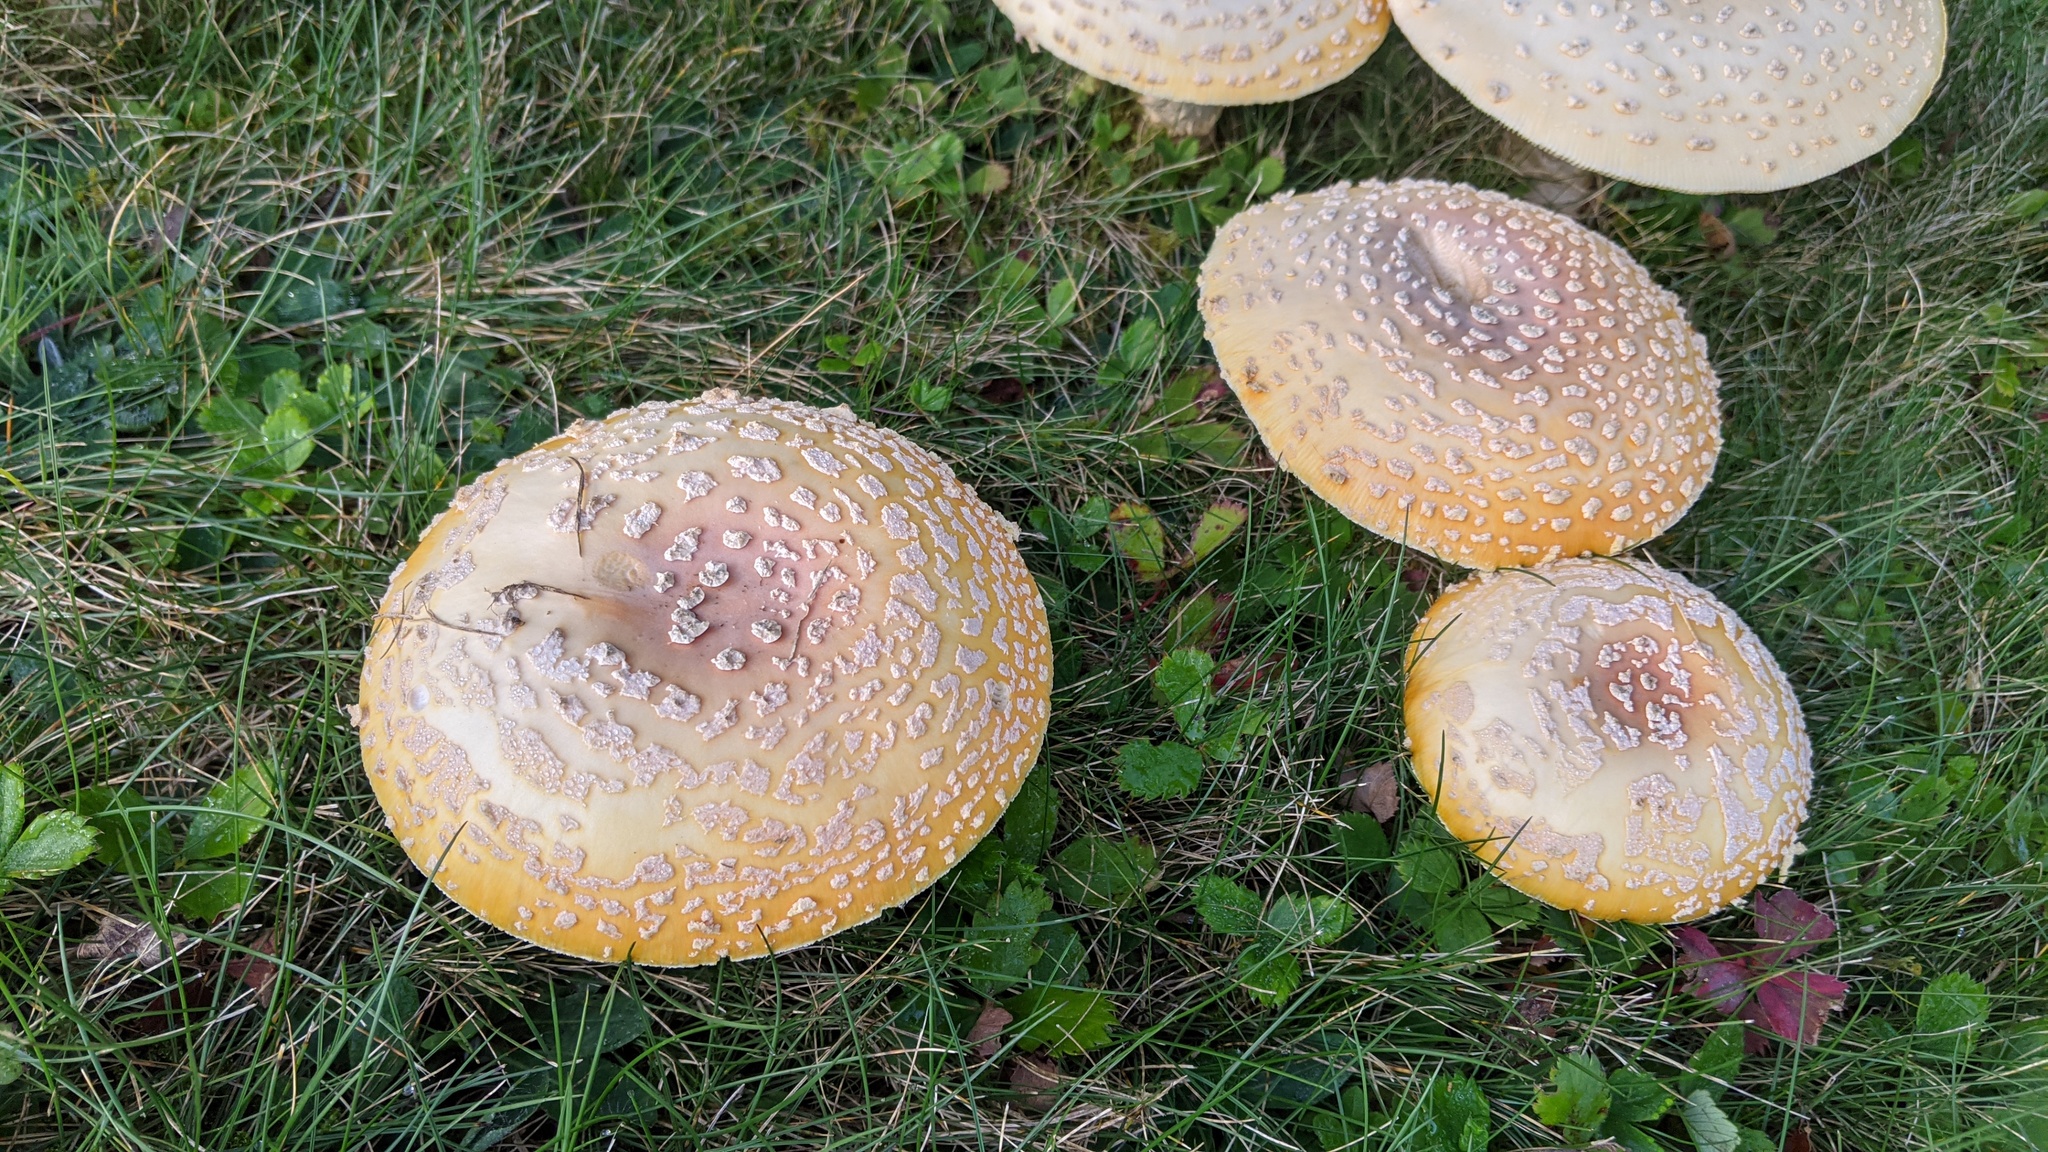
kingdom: Fungi
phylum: Basidiomycota
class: Agaricomycetes
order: Agaricales
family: Amanitaceae
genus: Amanita
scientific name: Amanita muscaria
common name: Fly agaric
